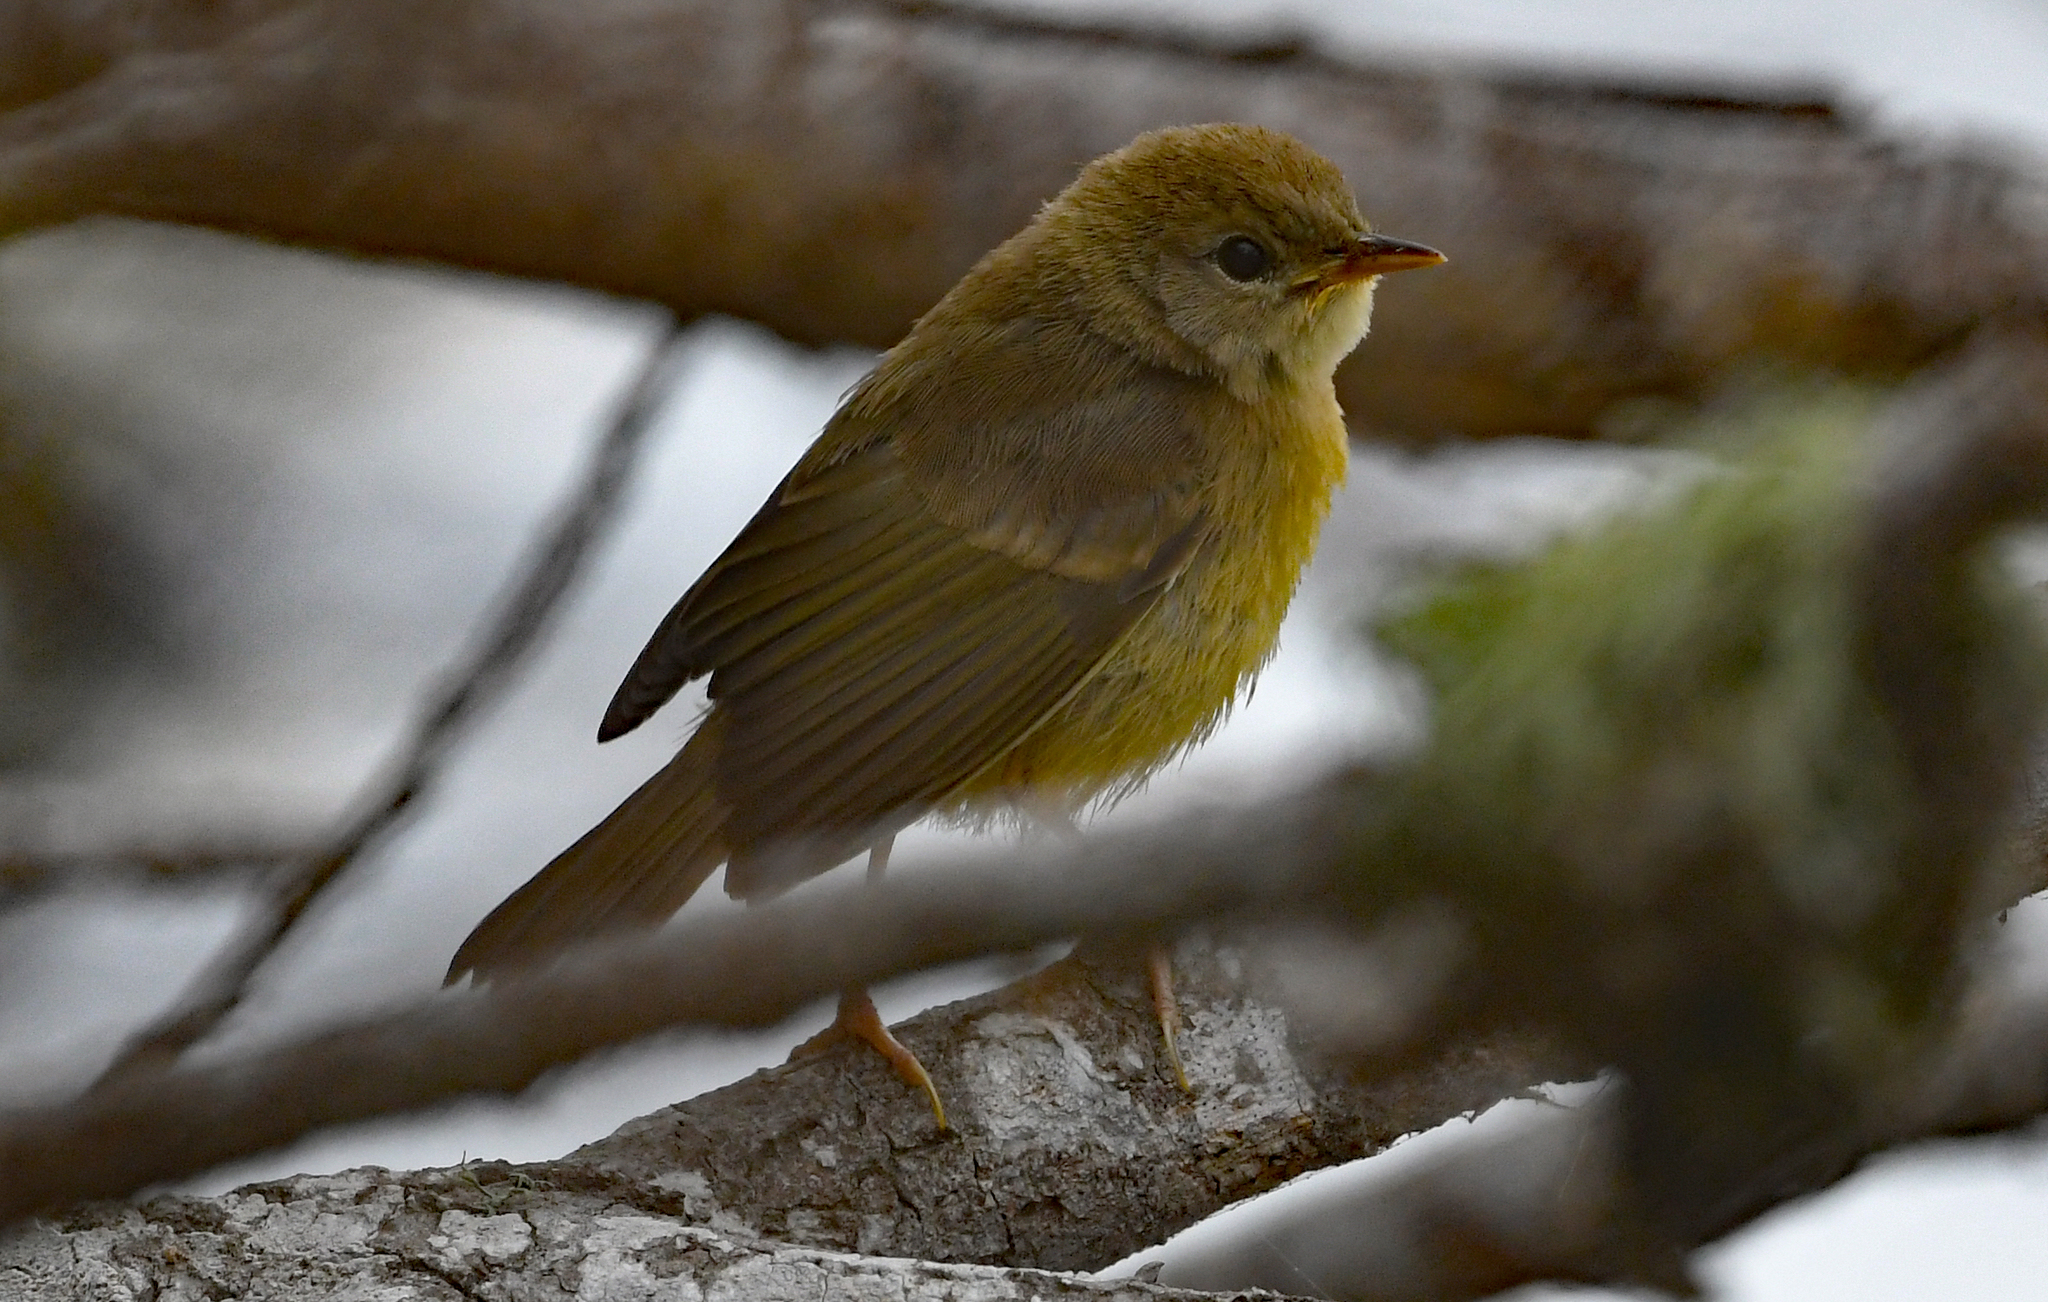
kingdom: Animalia
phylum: Chordata
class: Aves
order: Passeriformes
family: Parulidae
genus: Geothlypis
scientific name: Geothlypis trichas
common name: Common yellowthroat
